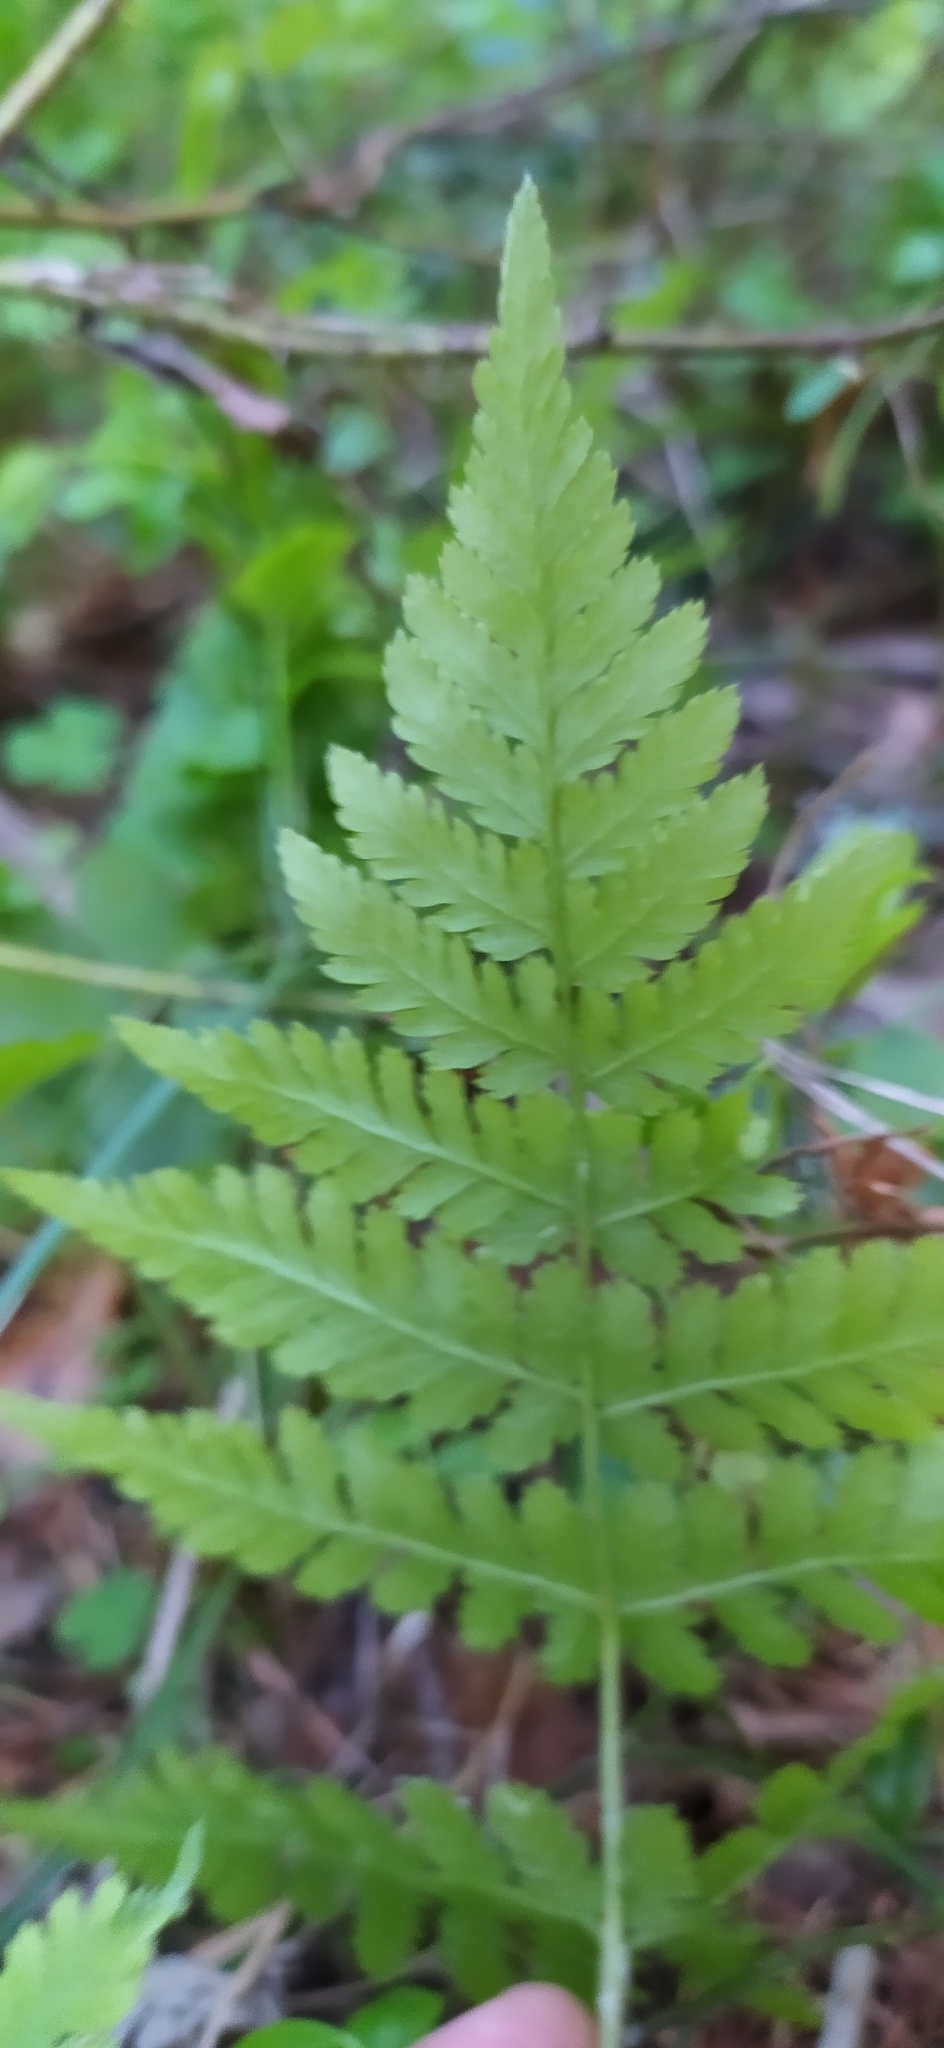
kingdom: Plantae
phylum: Tracheophyta
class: Polypodiopsida
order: Polypodiales
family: Dryopteridaceae
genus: Dryopteris
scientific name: Dryopteris carthusiana
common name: Narrow buckler-fern
